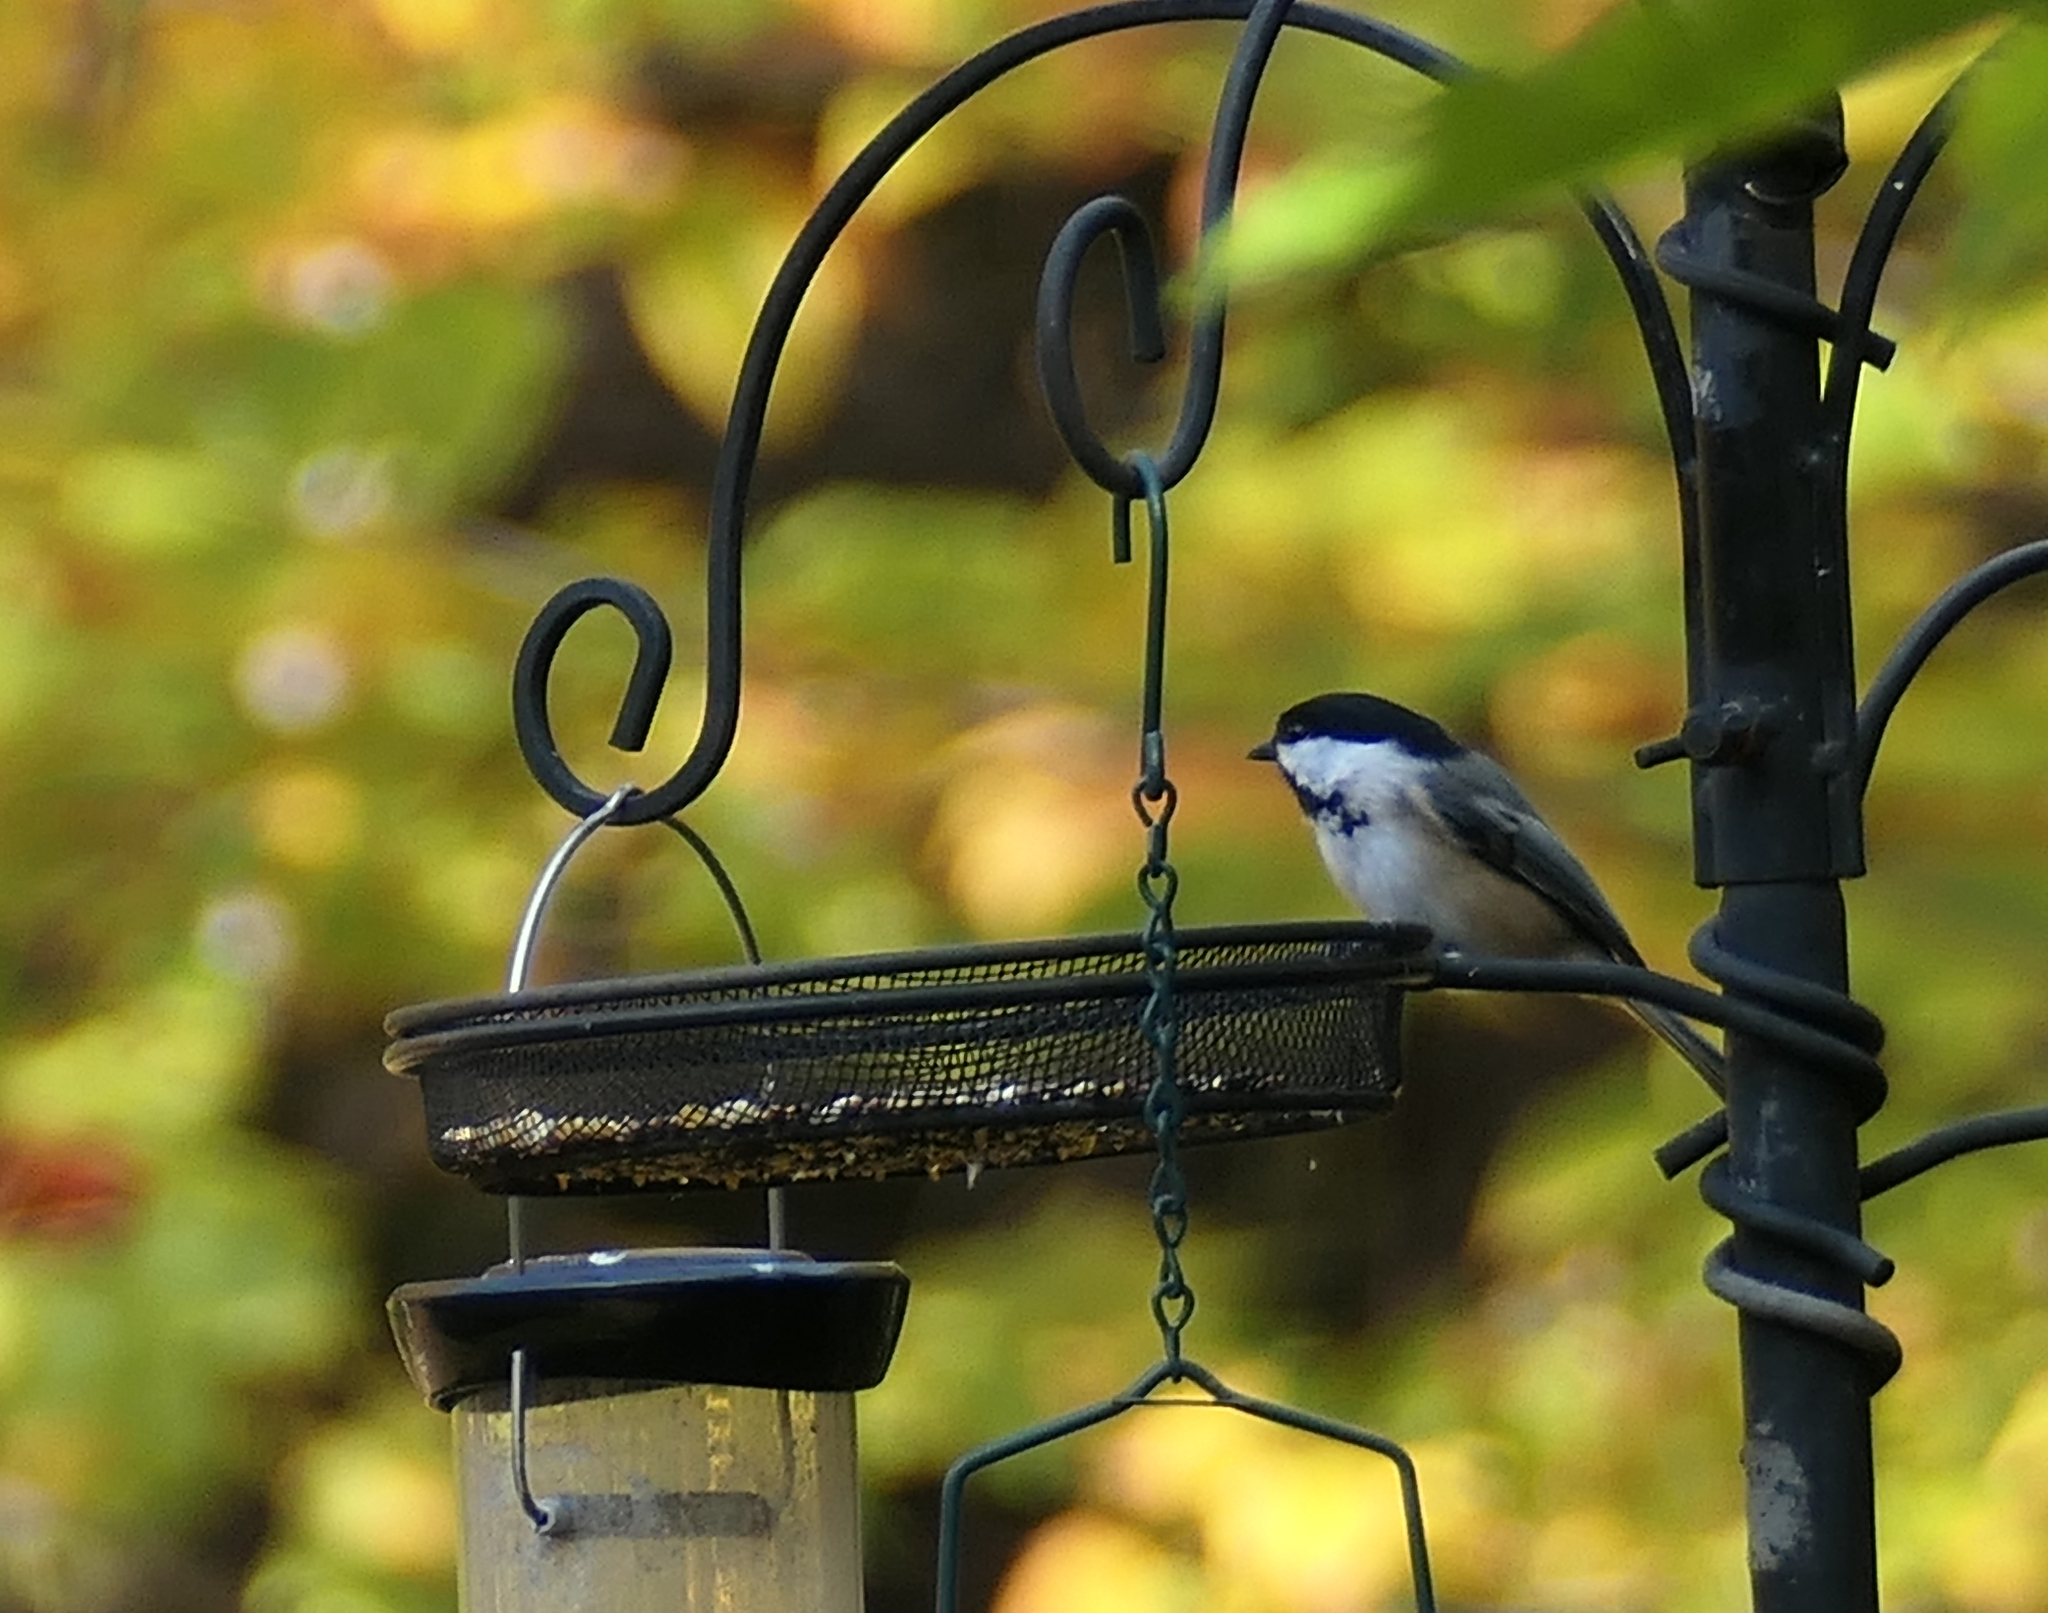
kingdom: Animalia
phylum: Chordata
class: Aves
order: Passeriformes
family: Paridae
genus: Poecile
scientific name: Poecile atricapillus
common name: Black-capped chickadee
